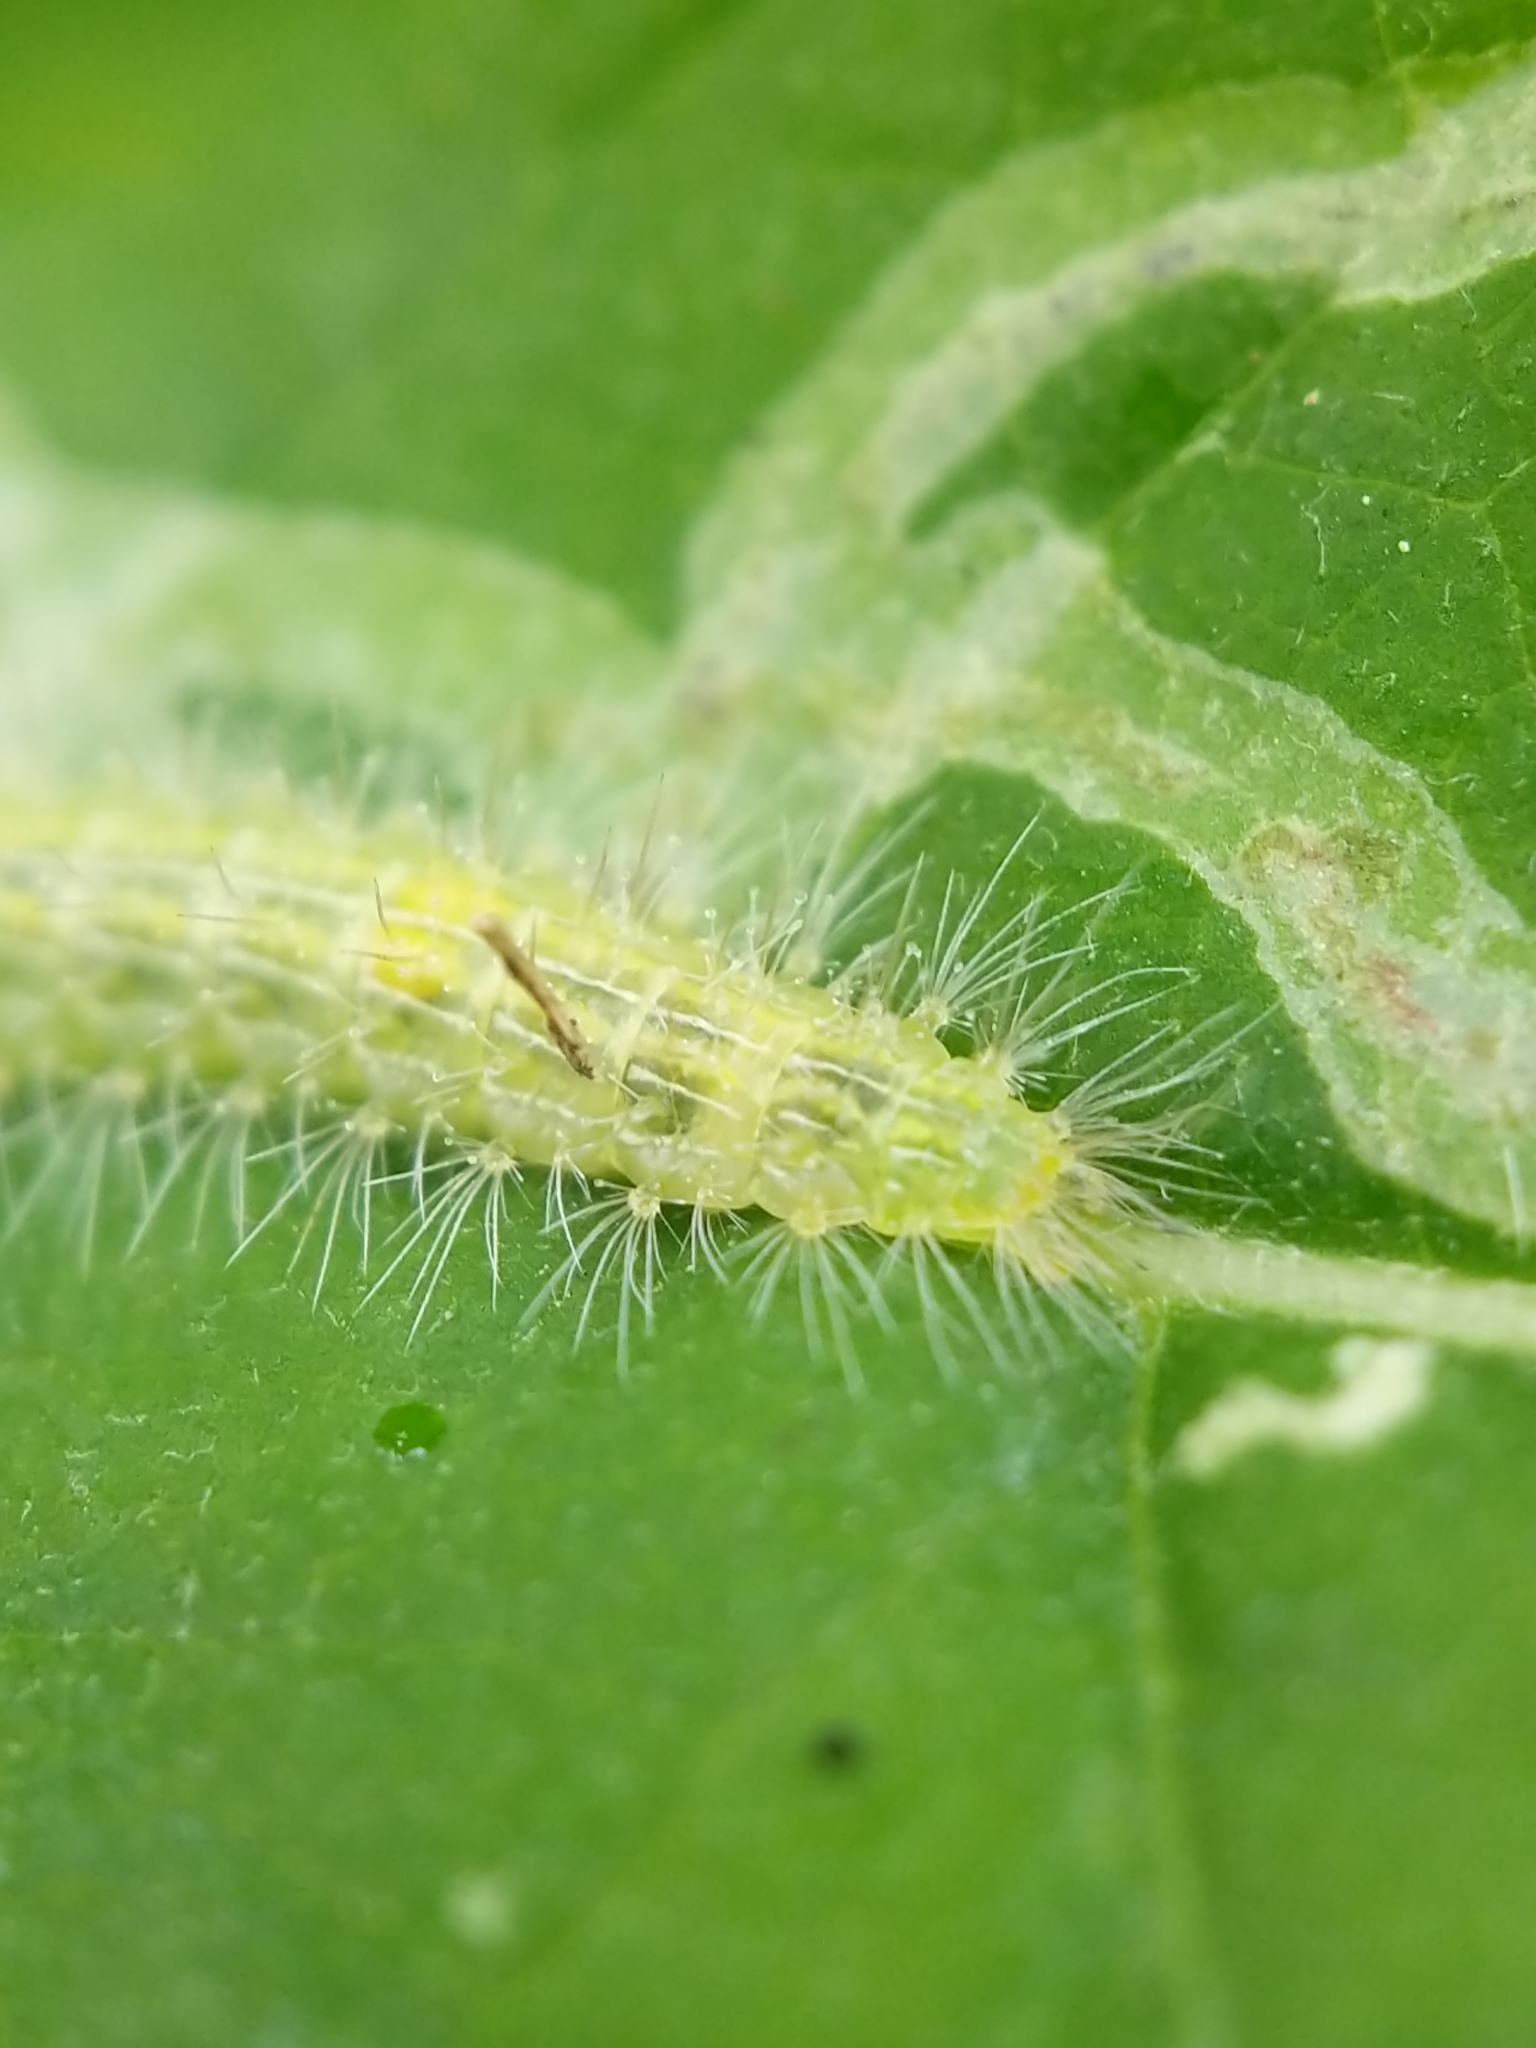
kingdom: Animalia
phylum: Arthropoda
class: Insecta
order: Lepidoptera
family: Pterophoridae
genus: Hellinsia
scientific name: Hellinsia paleaceus
